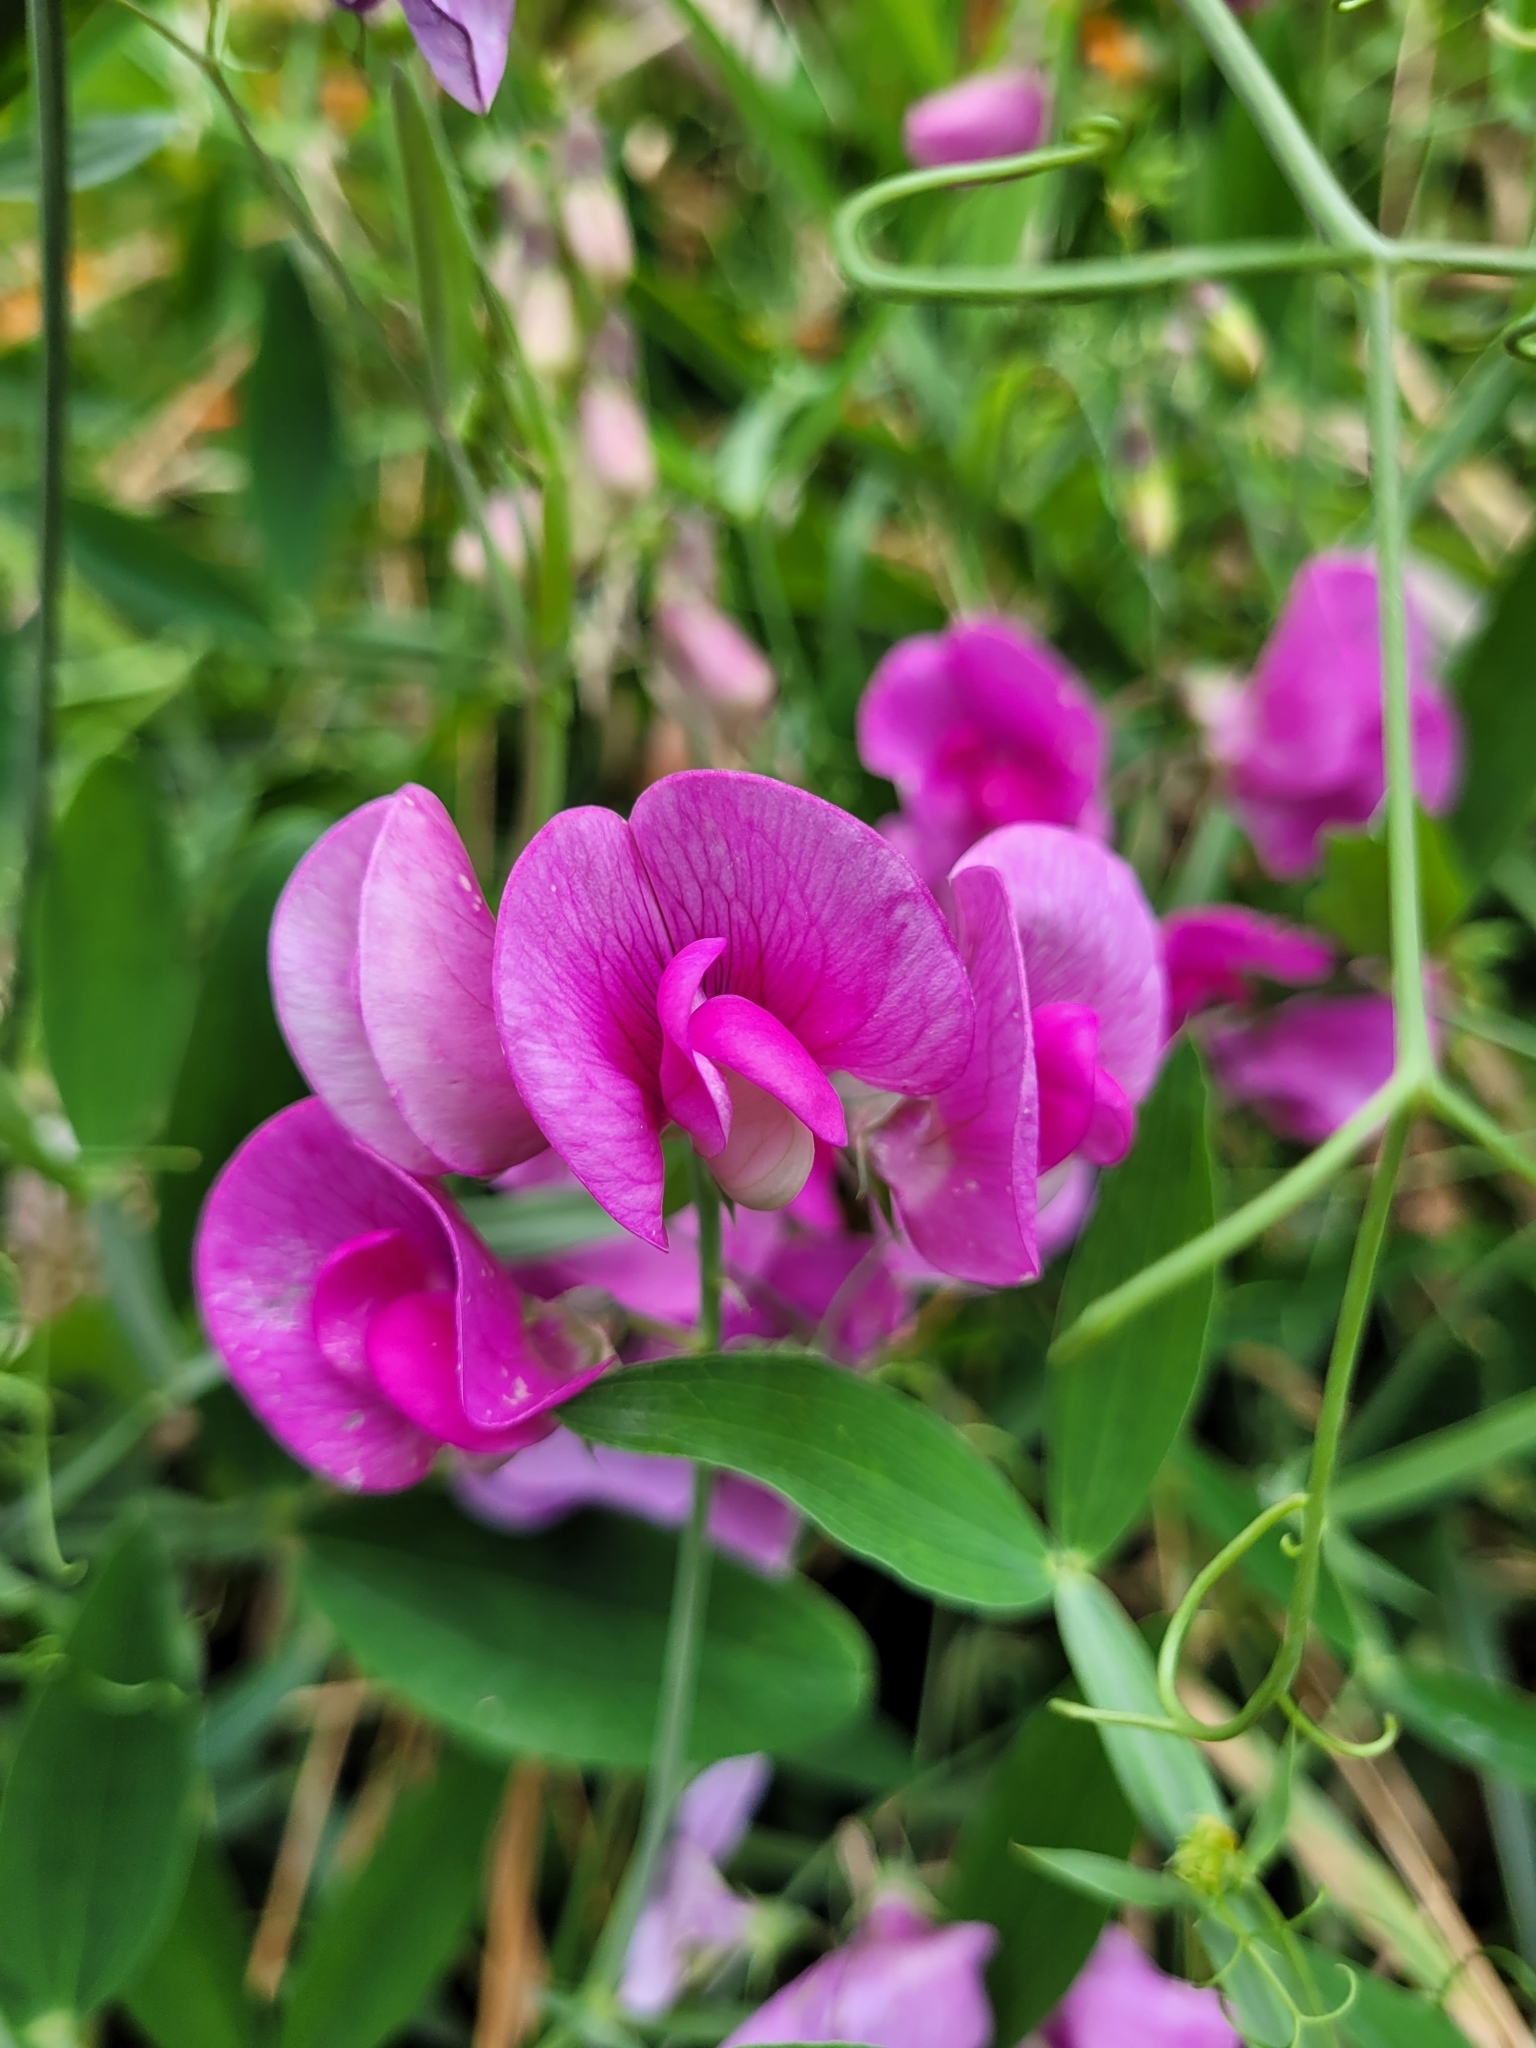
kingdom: Plantae
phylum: Tracheophyta
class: Magnoliopsida
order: Fabales
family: Fabaceae
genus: Lathyrus
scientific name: Lathyrus latifolius
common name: Perennial pea
